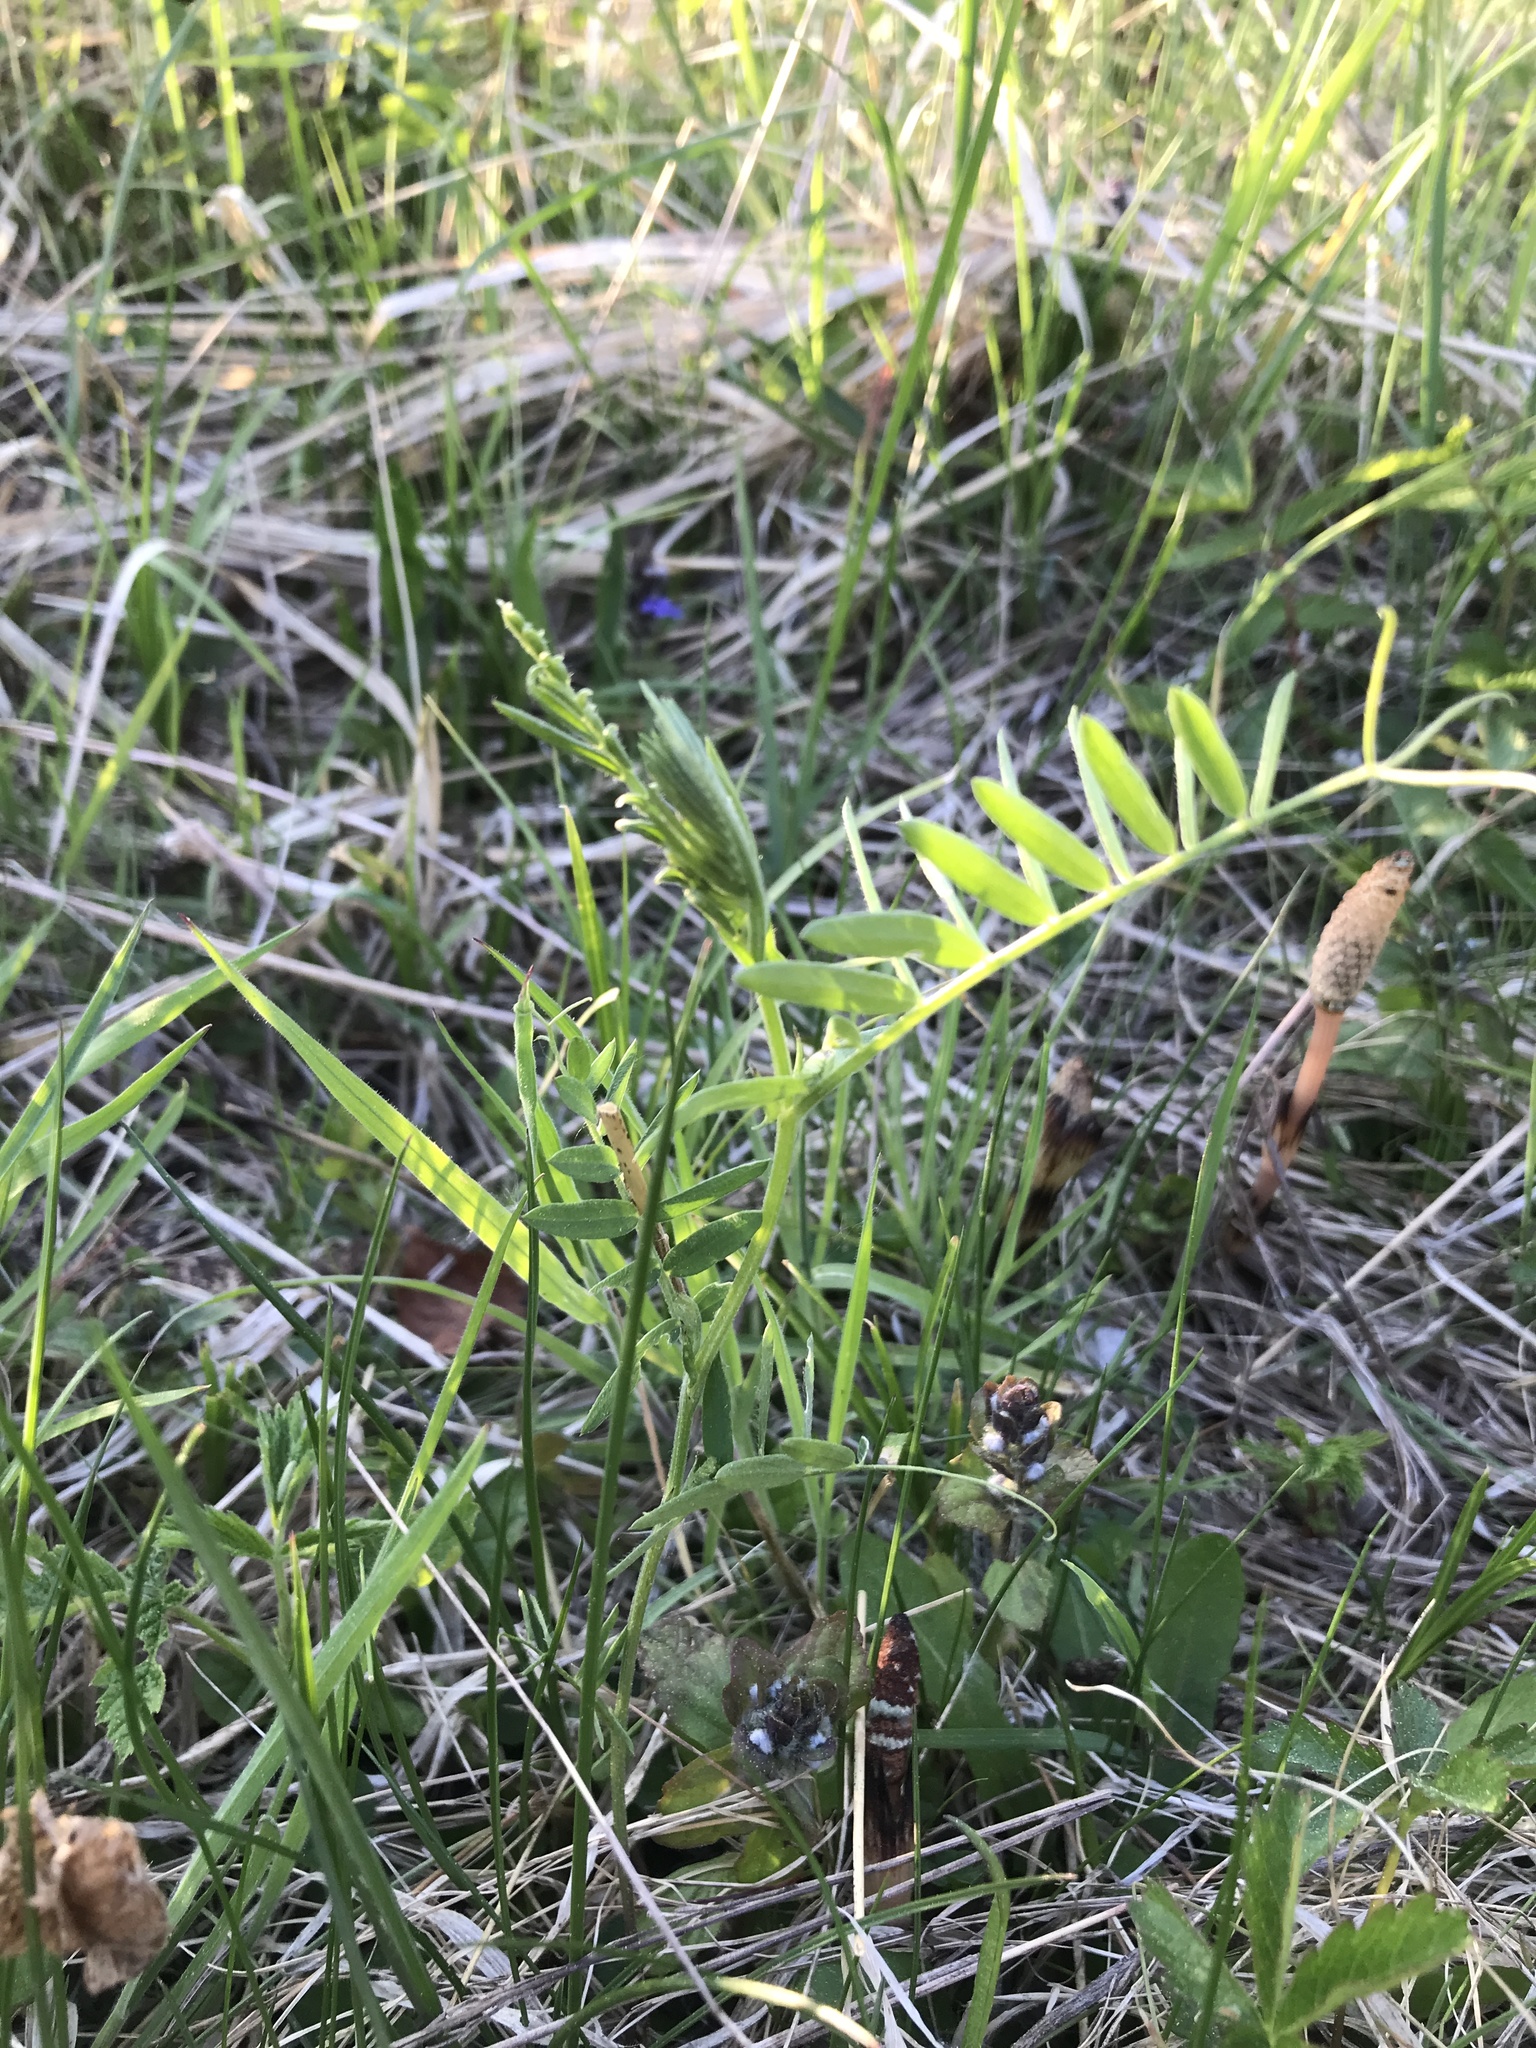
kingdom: Plantae
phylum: Tracheophyta
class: Magnoliopsida
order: Fabales
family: Fabaceae
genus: Vicia
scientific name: Vicia
